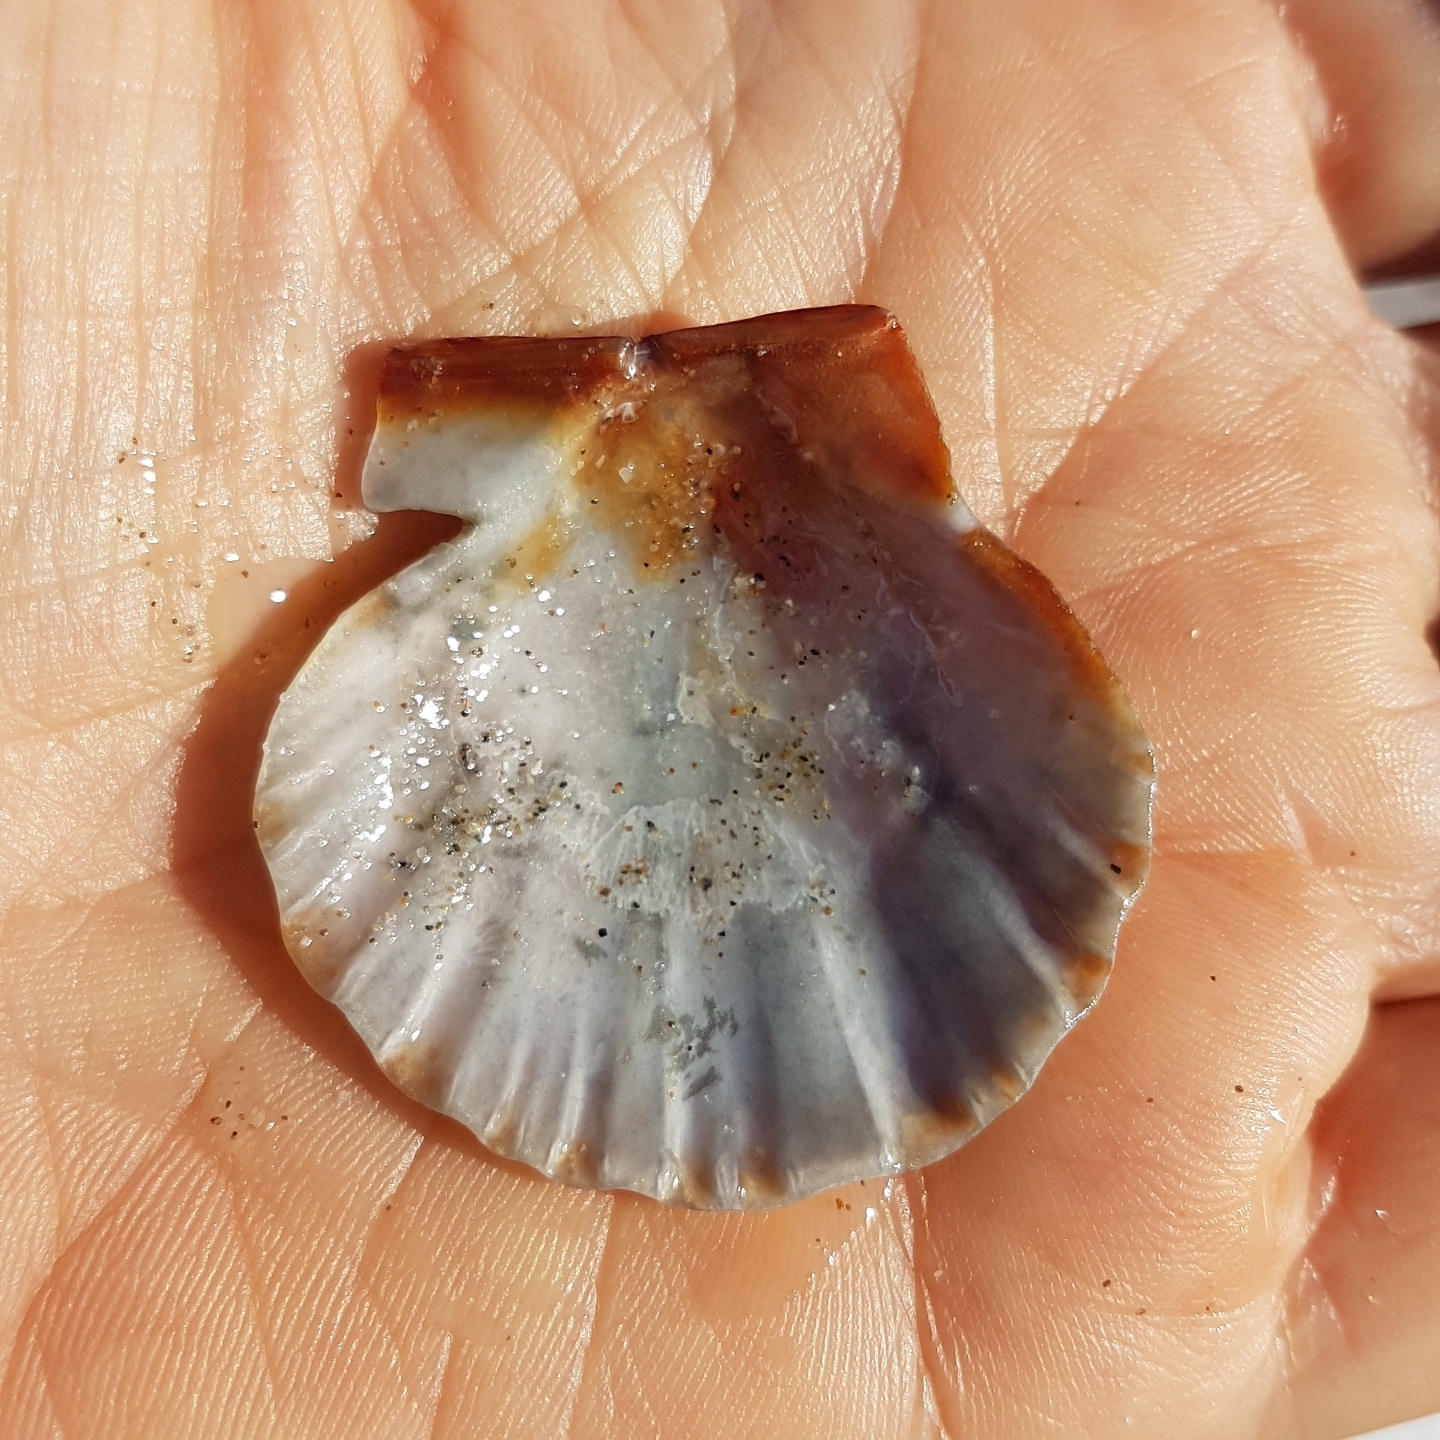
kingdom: Animalia
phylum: Mollusca
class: Bivalvia
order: Pectinida
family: Pectinidae
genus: Flexopecten
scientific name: Flexopecten glaber
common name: Smooth scallop
